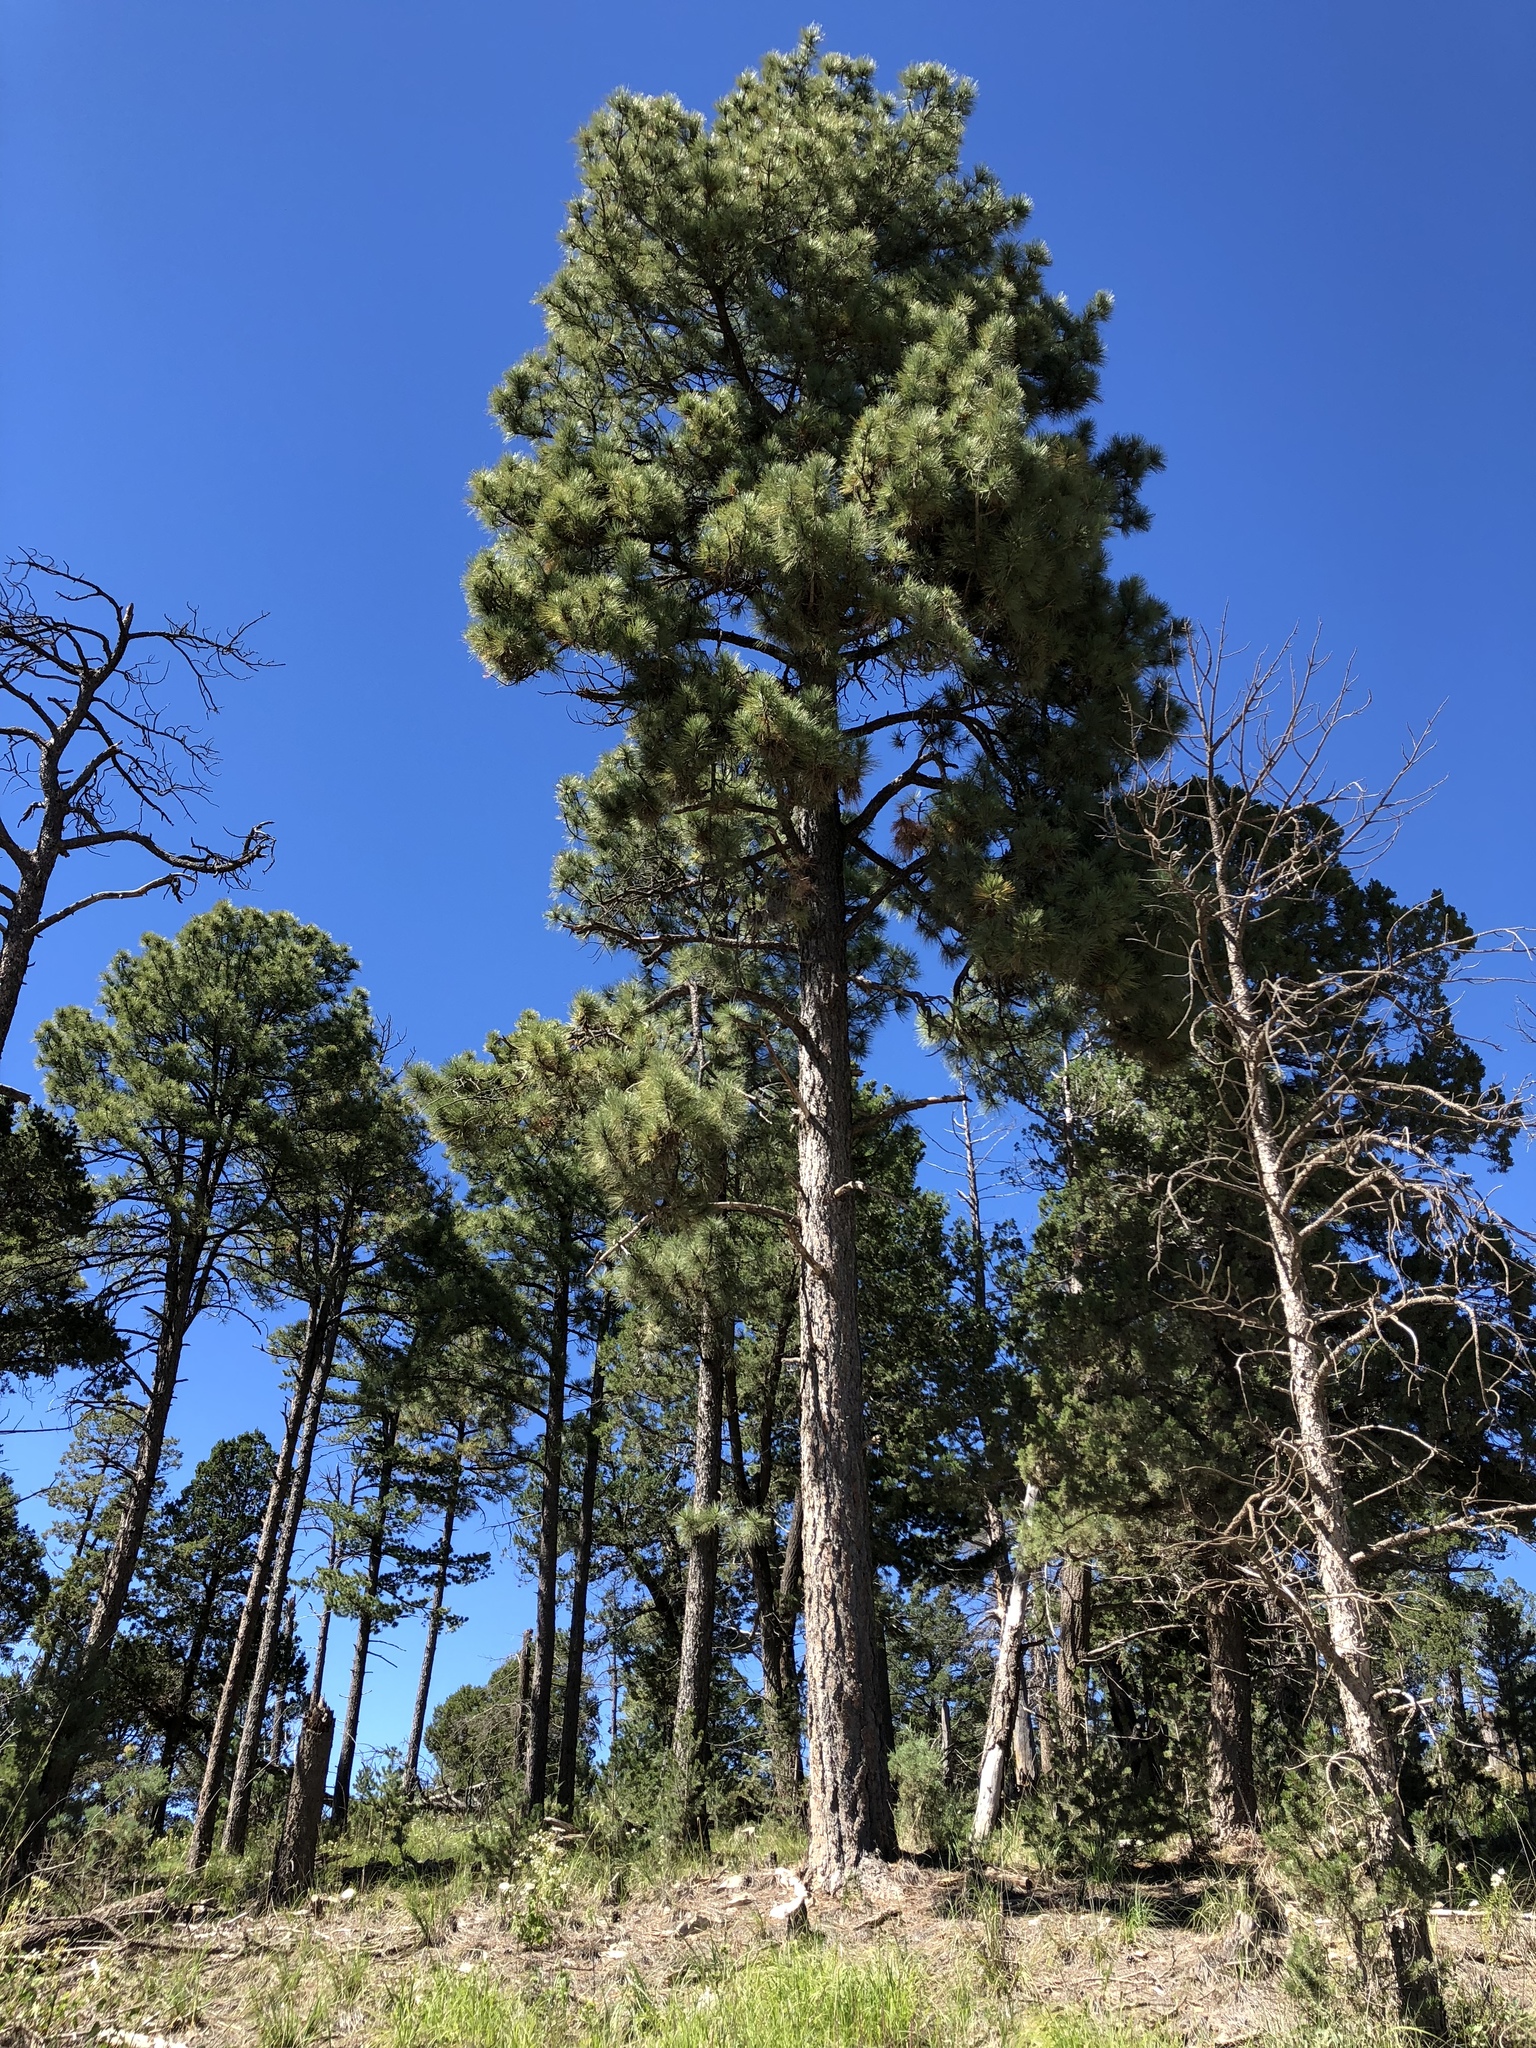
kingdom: Plantae
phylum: Tracheophyta
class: Pinopsida
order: Pinales
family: Pinaceae
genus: Pinus
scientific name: Pinus ponderosa
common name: Western yellow-pine
